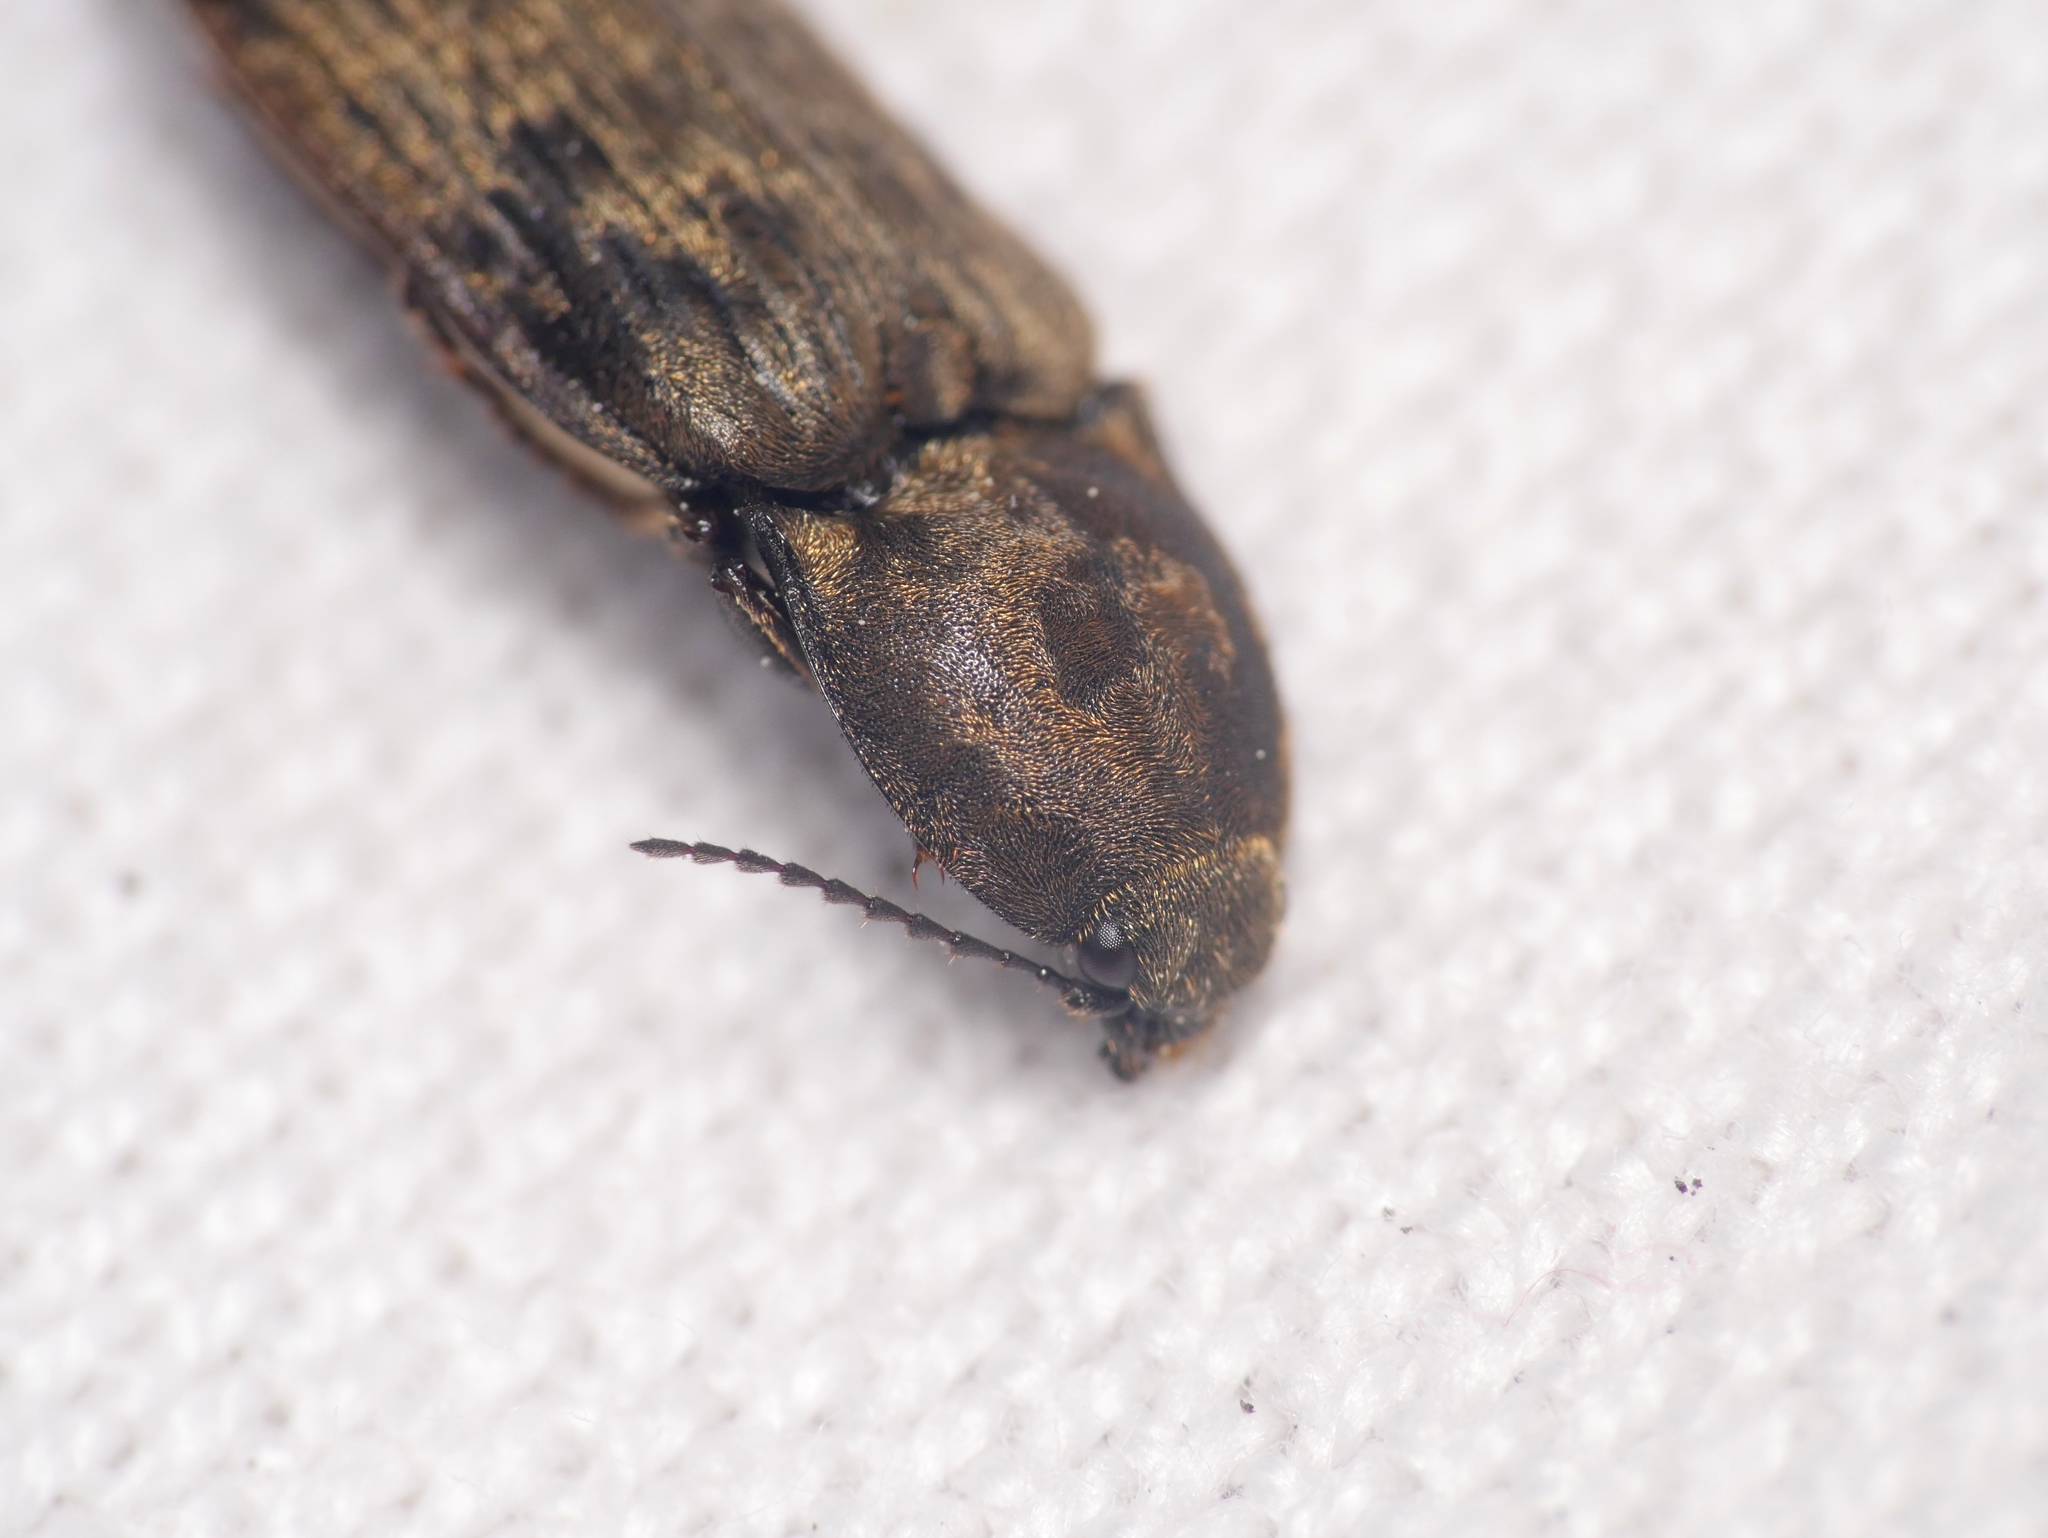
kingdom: Animalia
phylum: Arthropoda
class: Insecta
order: Coleoptera
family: Elateridae
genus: Prosternon
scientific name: Prosternon tessellatum
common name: Chequered click beetle
